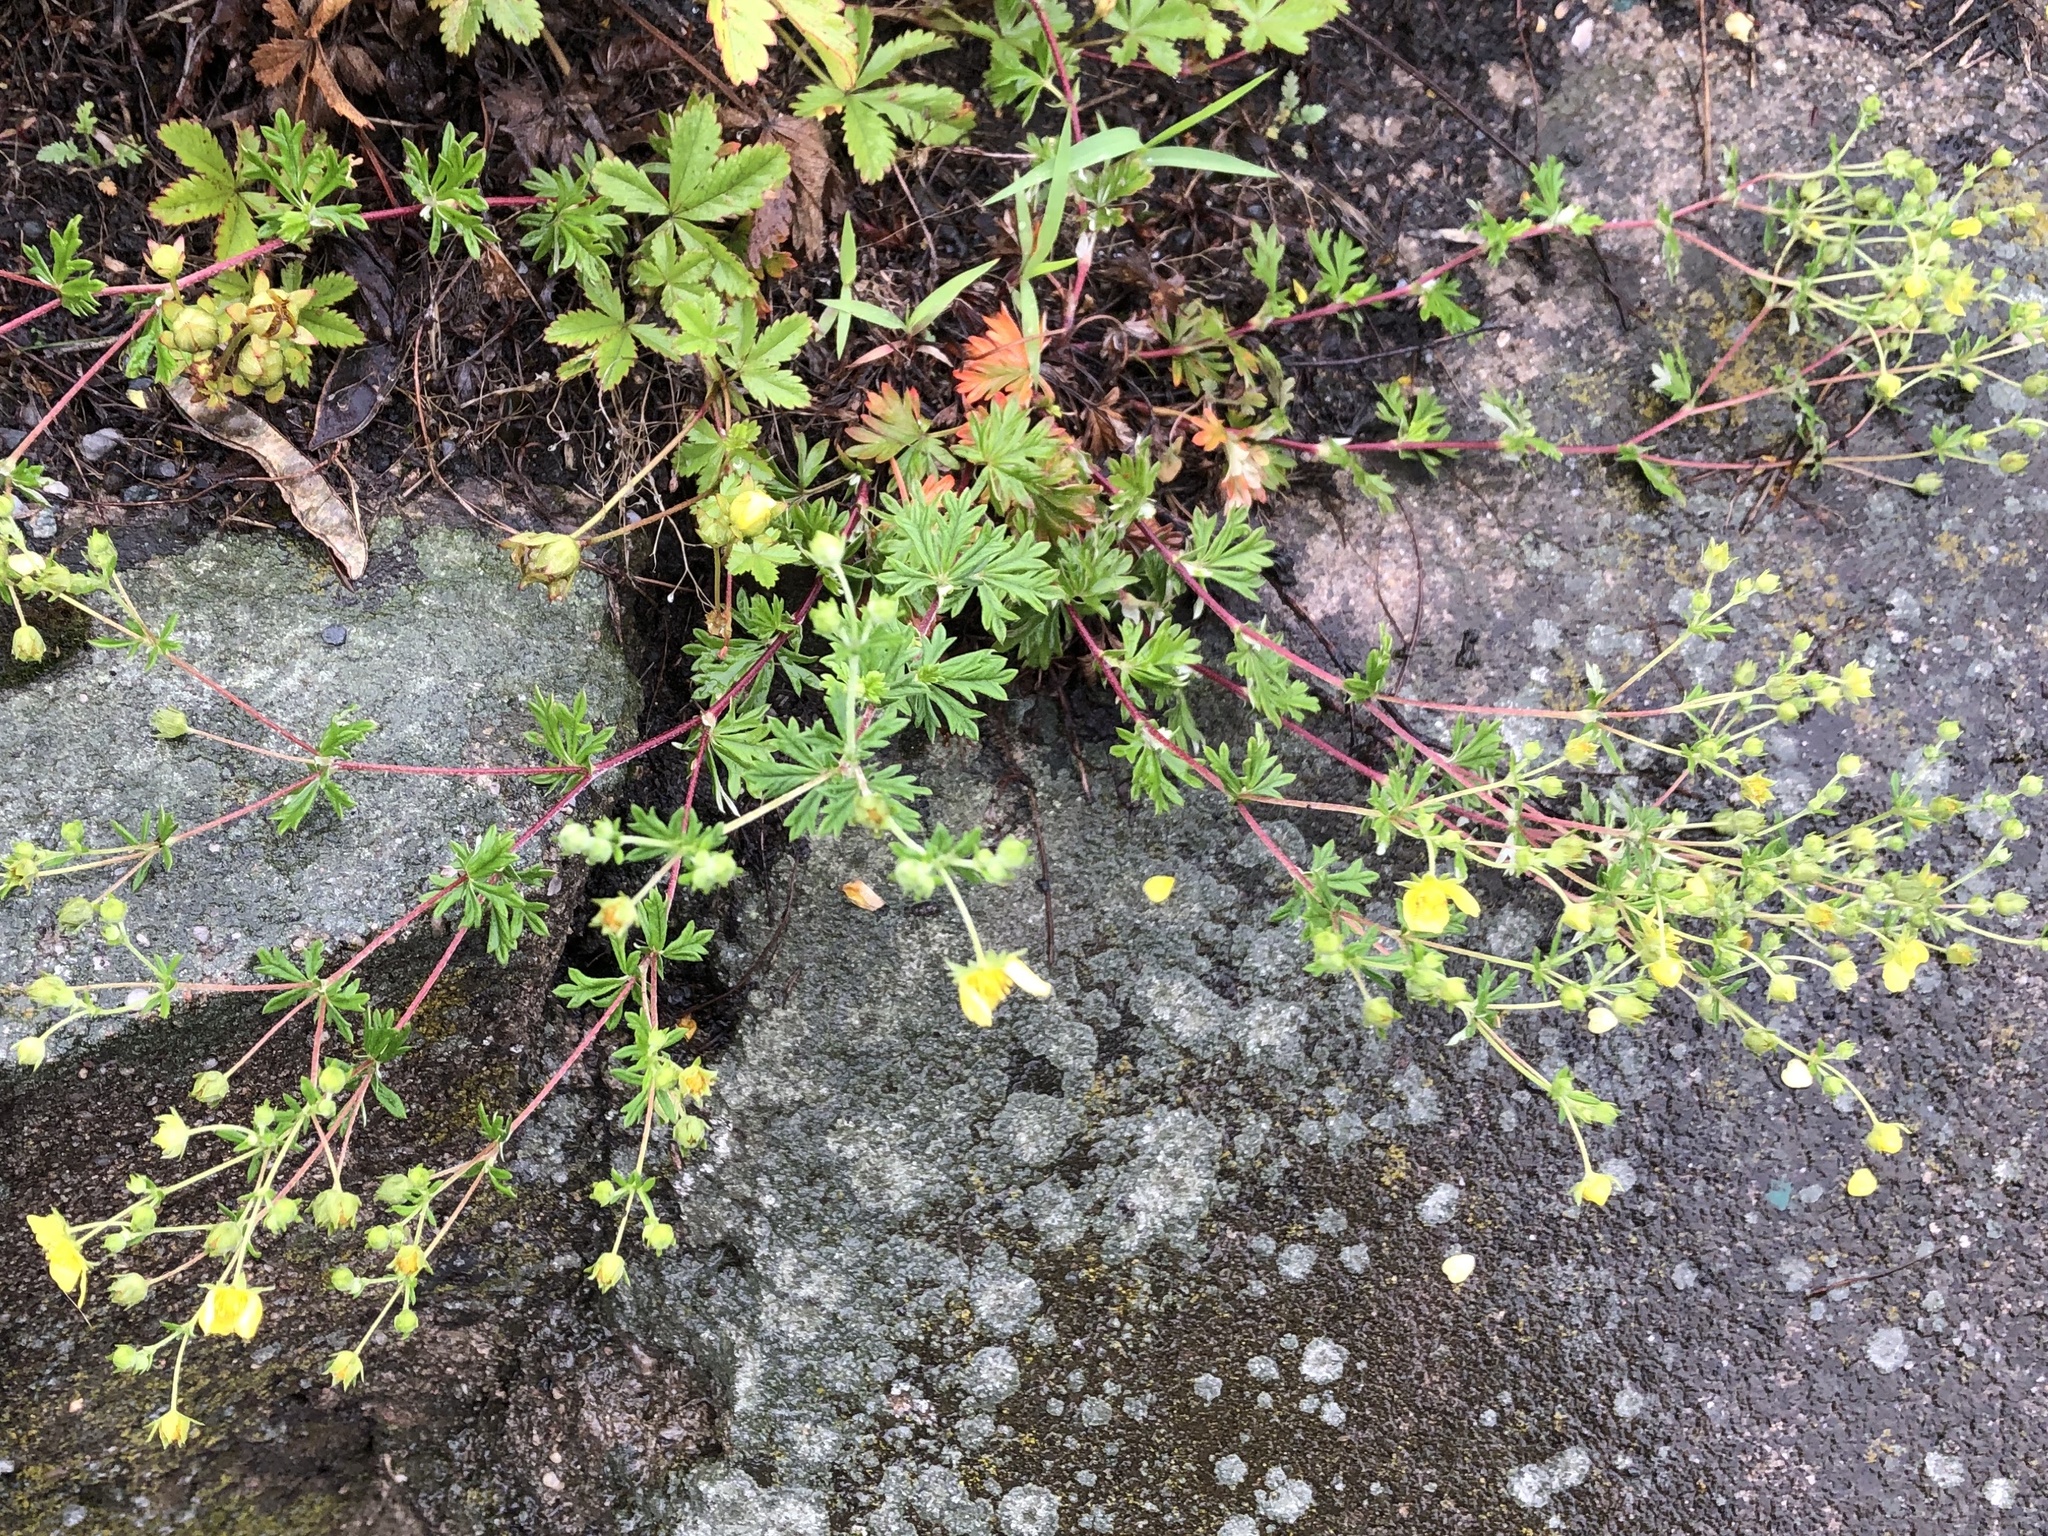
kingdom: Plantae
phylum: Tracheophyta
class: Magnoliopsida
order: Rosales
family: Rosaceae
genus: Potentilla
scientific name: Potentilla argentea
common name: Hoary cinquefoil
